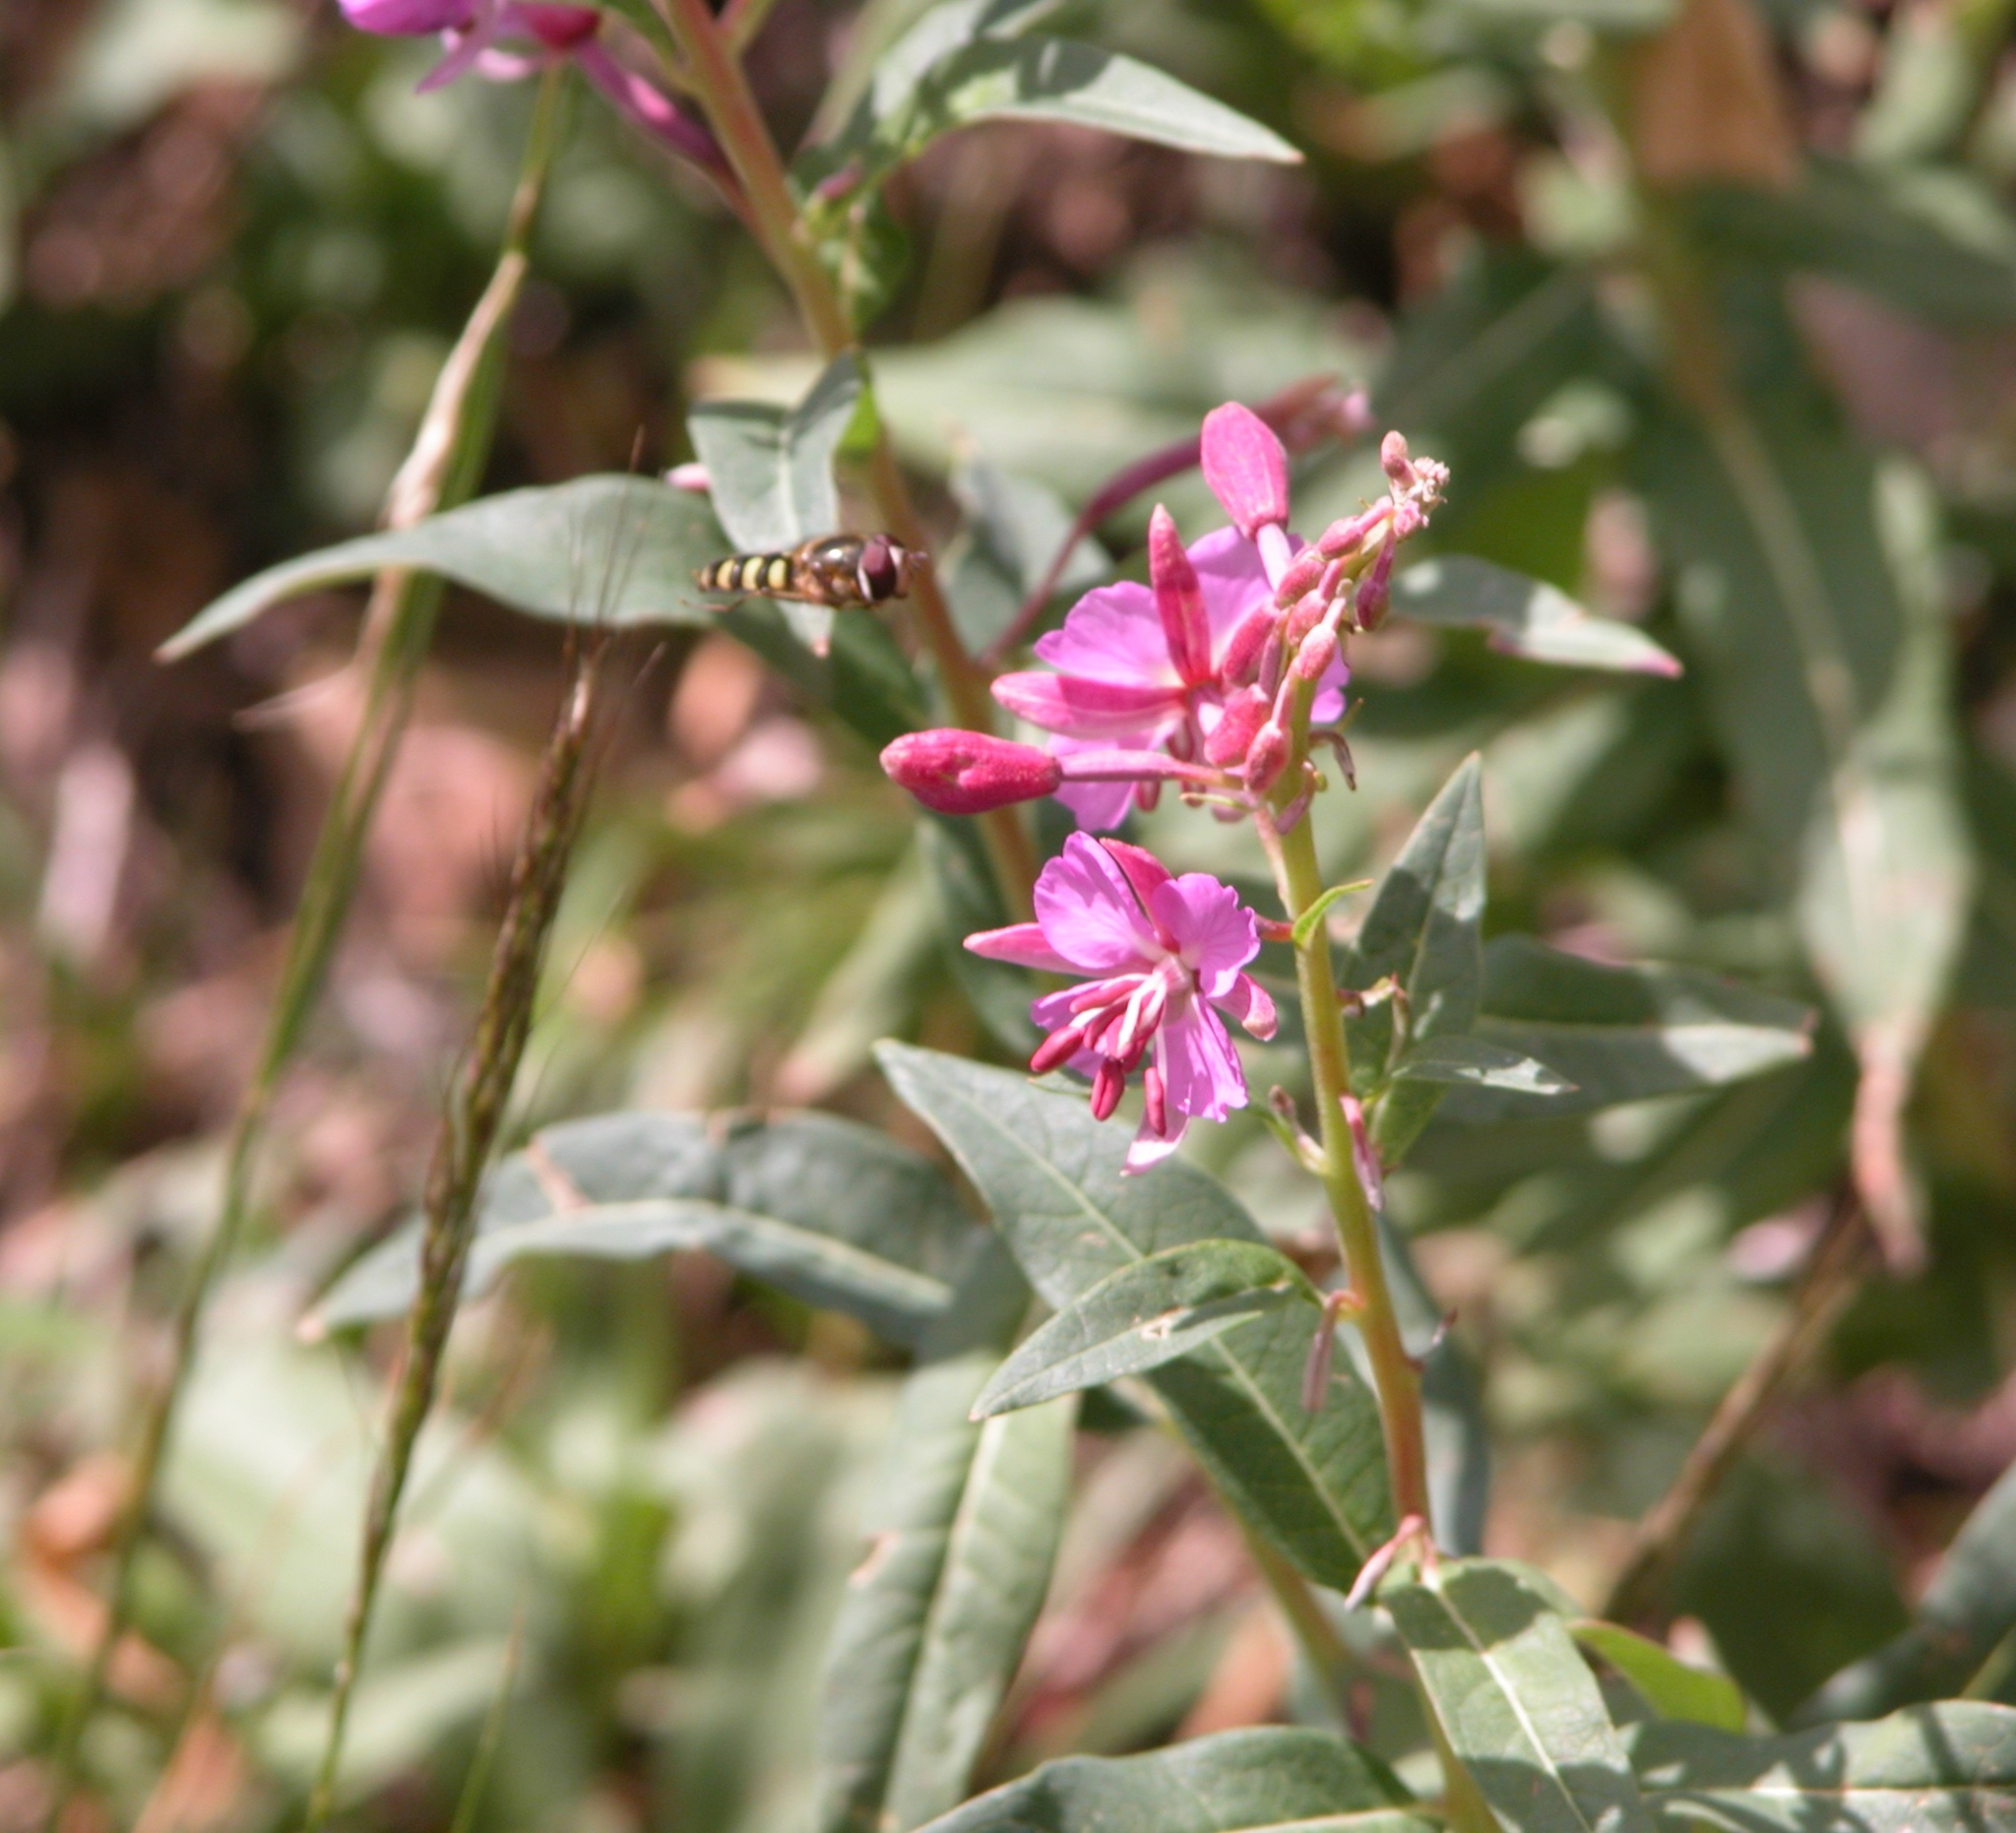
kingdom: Plantae
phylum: Tracheophyta
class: Magnoliopsida
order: Myrtales
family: Onagraceae
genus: Chamaenerion
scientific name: Chamaenerion angustifolium
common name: Fireweed
